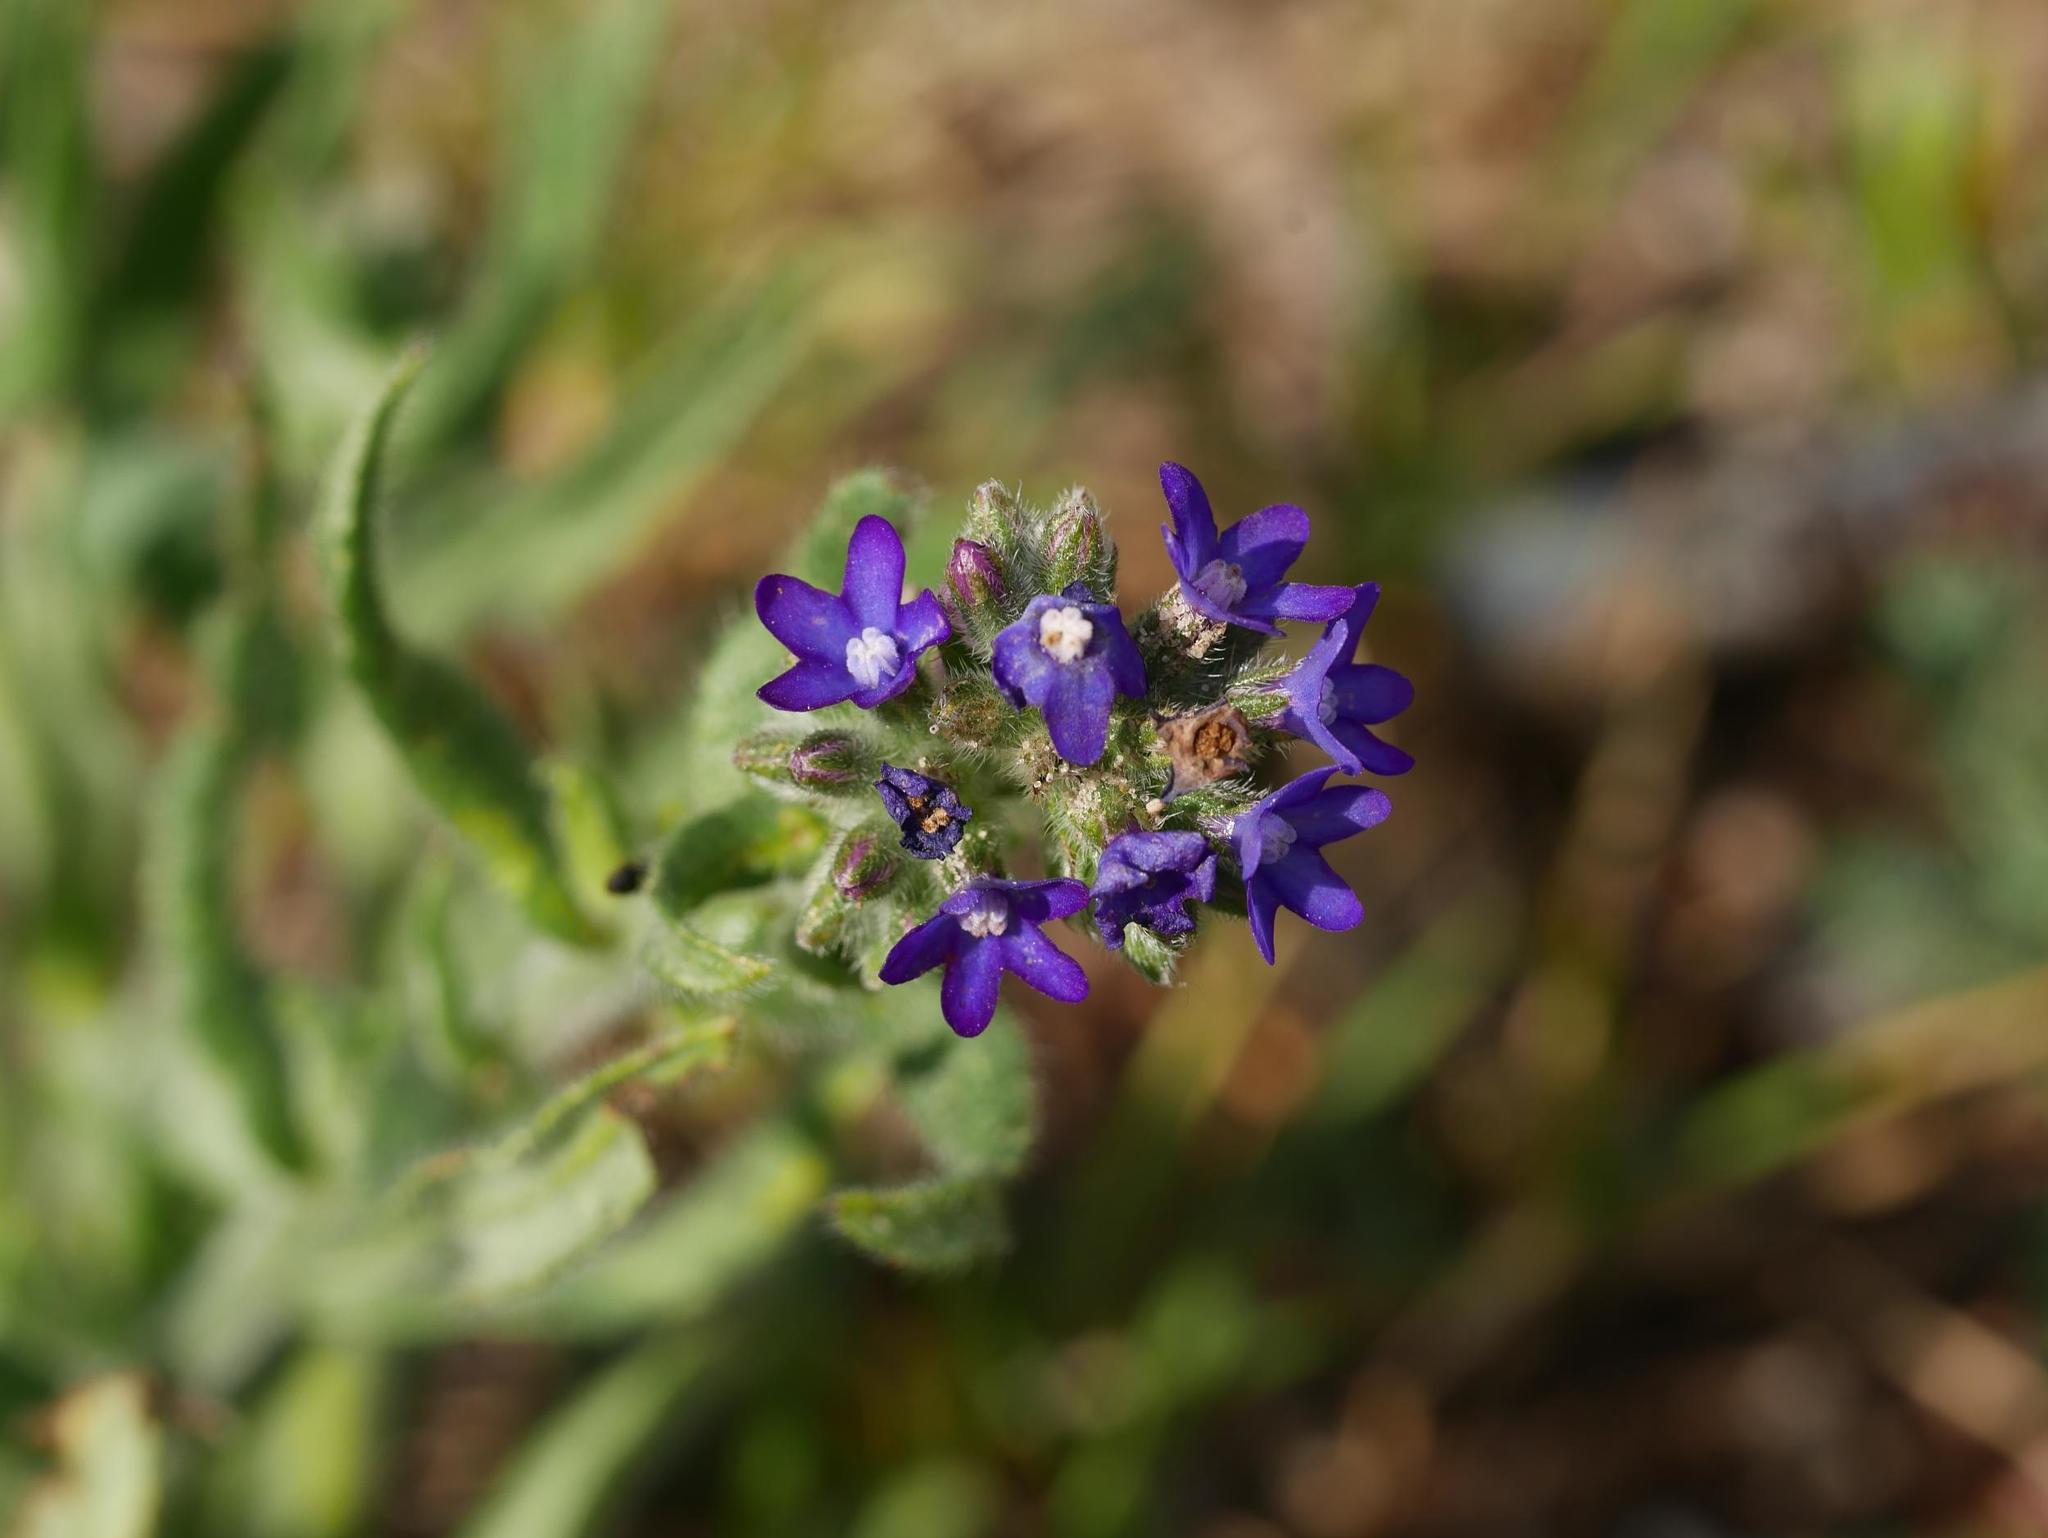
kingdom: Plantae
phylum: Tracheophyta
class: Magnoliopsida
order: Boraginales
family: Boraginaceae
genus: Anchusa
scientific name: Anchusa officinalis
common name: Alkanet
